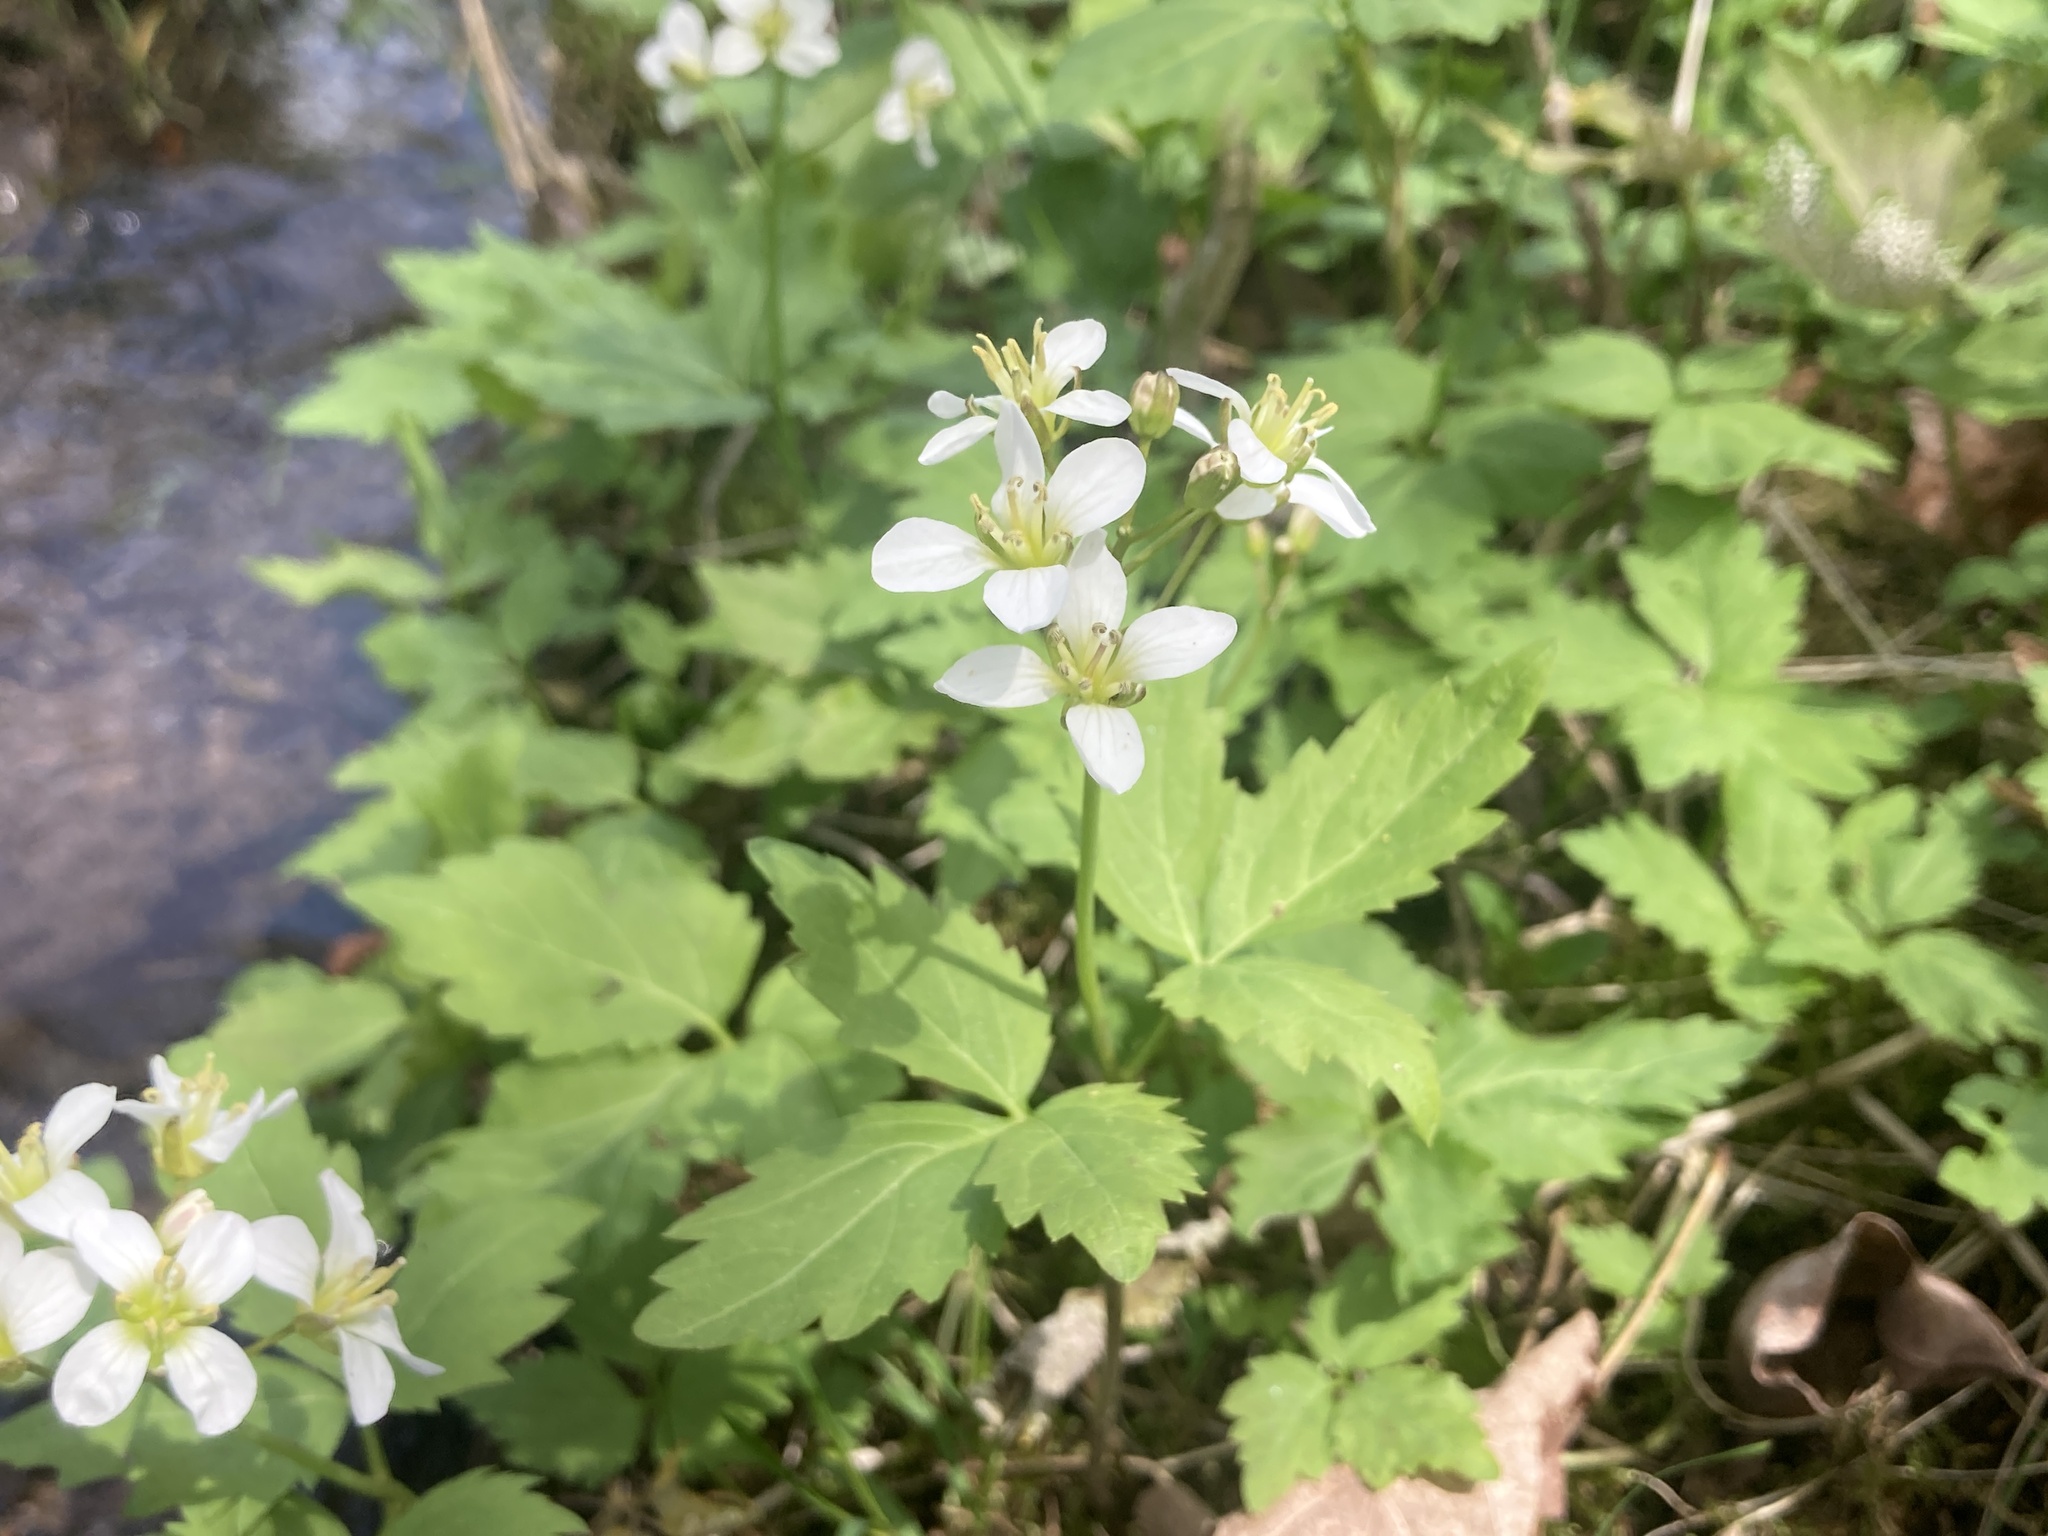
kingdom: Plantae
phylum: Tracheophyta
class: Magnoliopsida
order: Brassicales
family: Brassicaceae
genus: Cardamine
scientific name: Cardamine diphylla
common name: Broad-leaved toothwort
